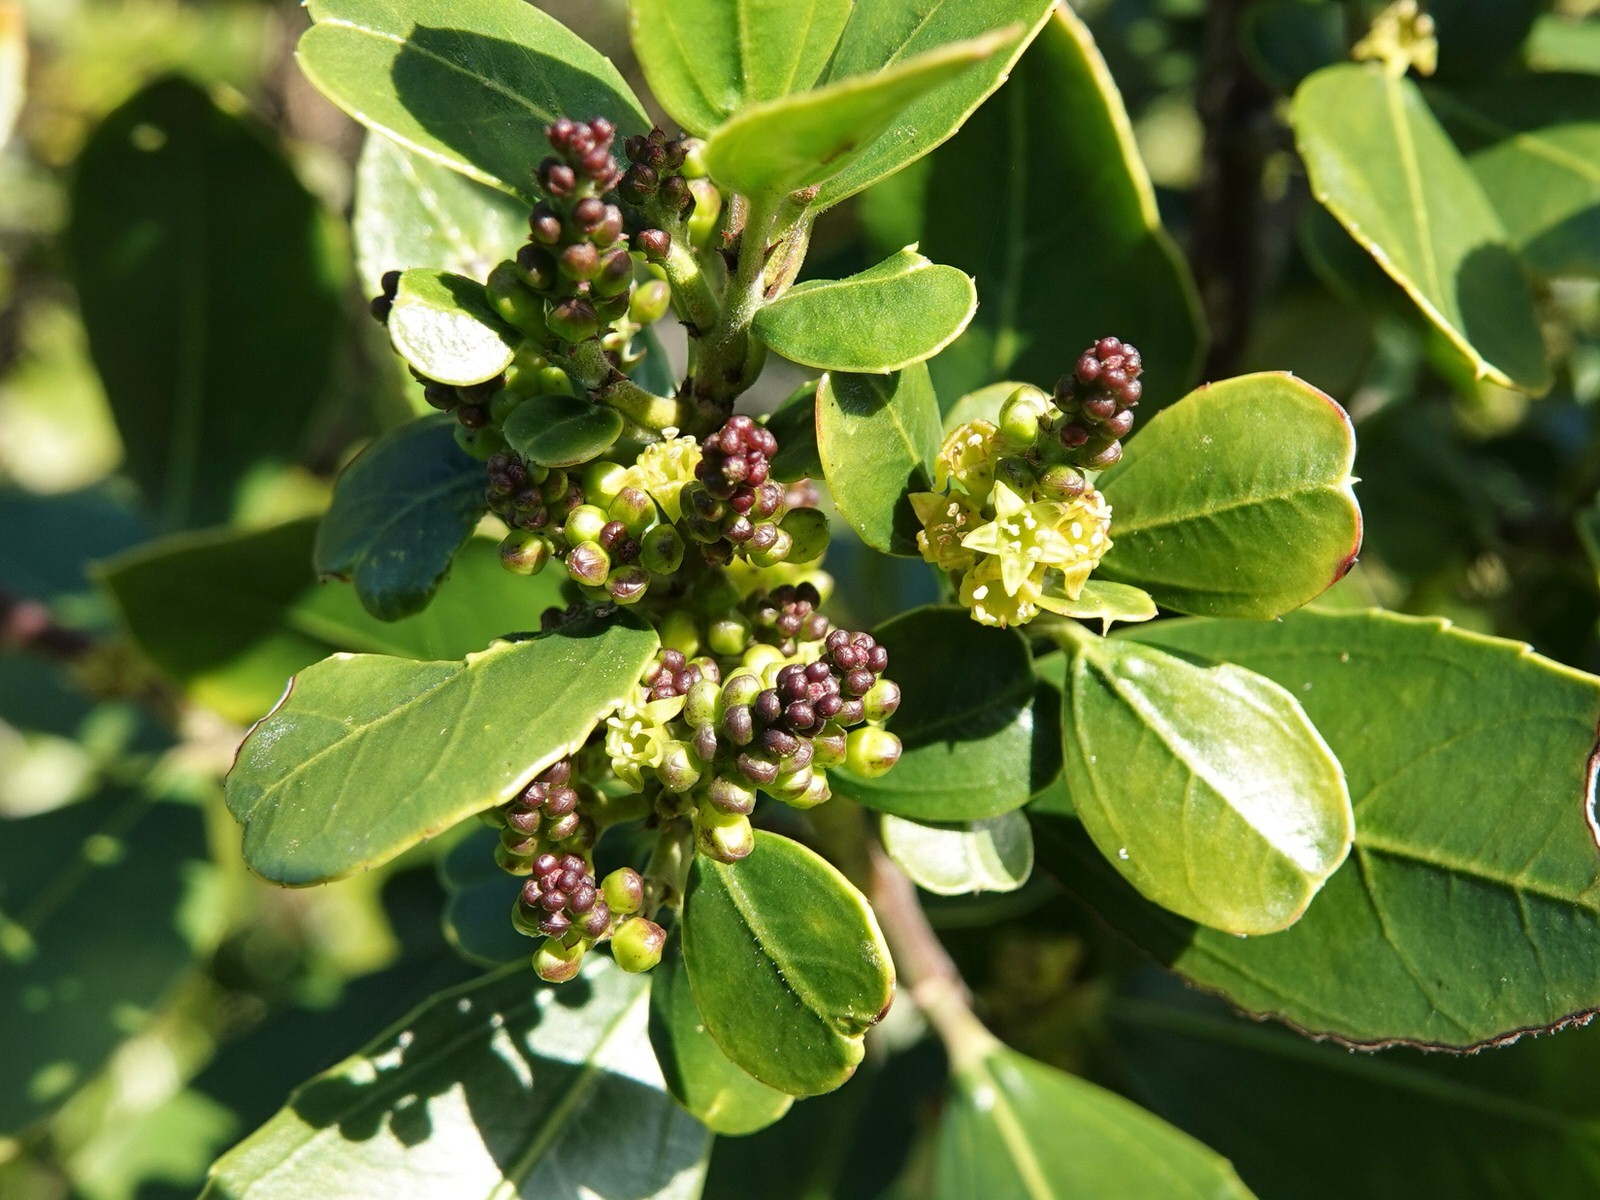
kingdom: Plantae
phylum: Tracheophyta
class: Magnoliopsida
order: Rosales
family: Rhamnaceae
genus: Rhamnus
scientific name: Rhamnus alaternus
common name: Mediterranean buckthorn
